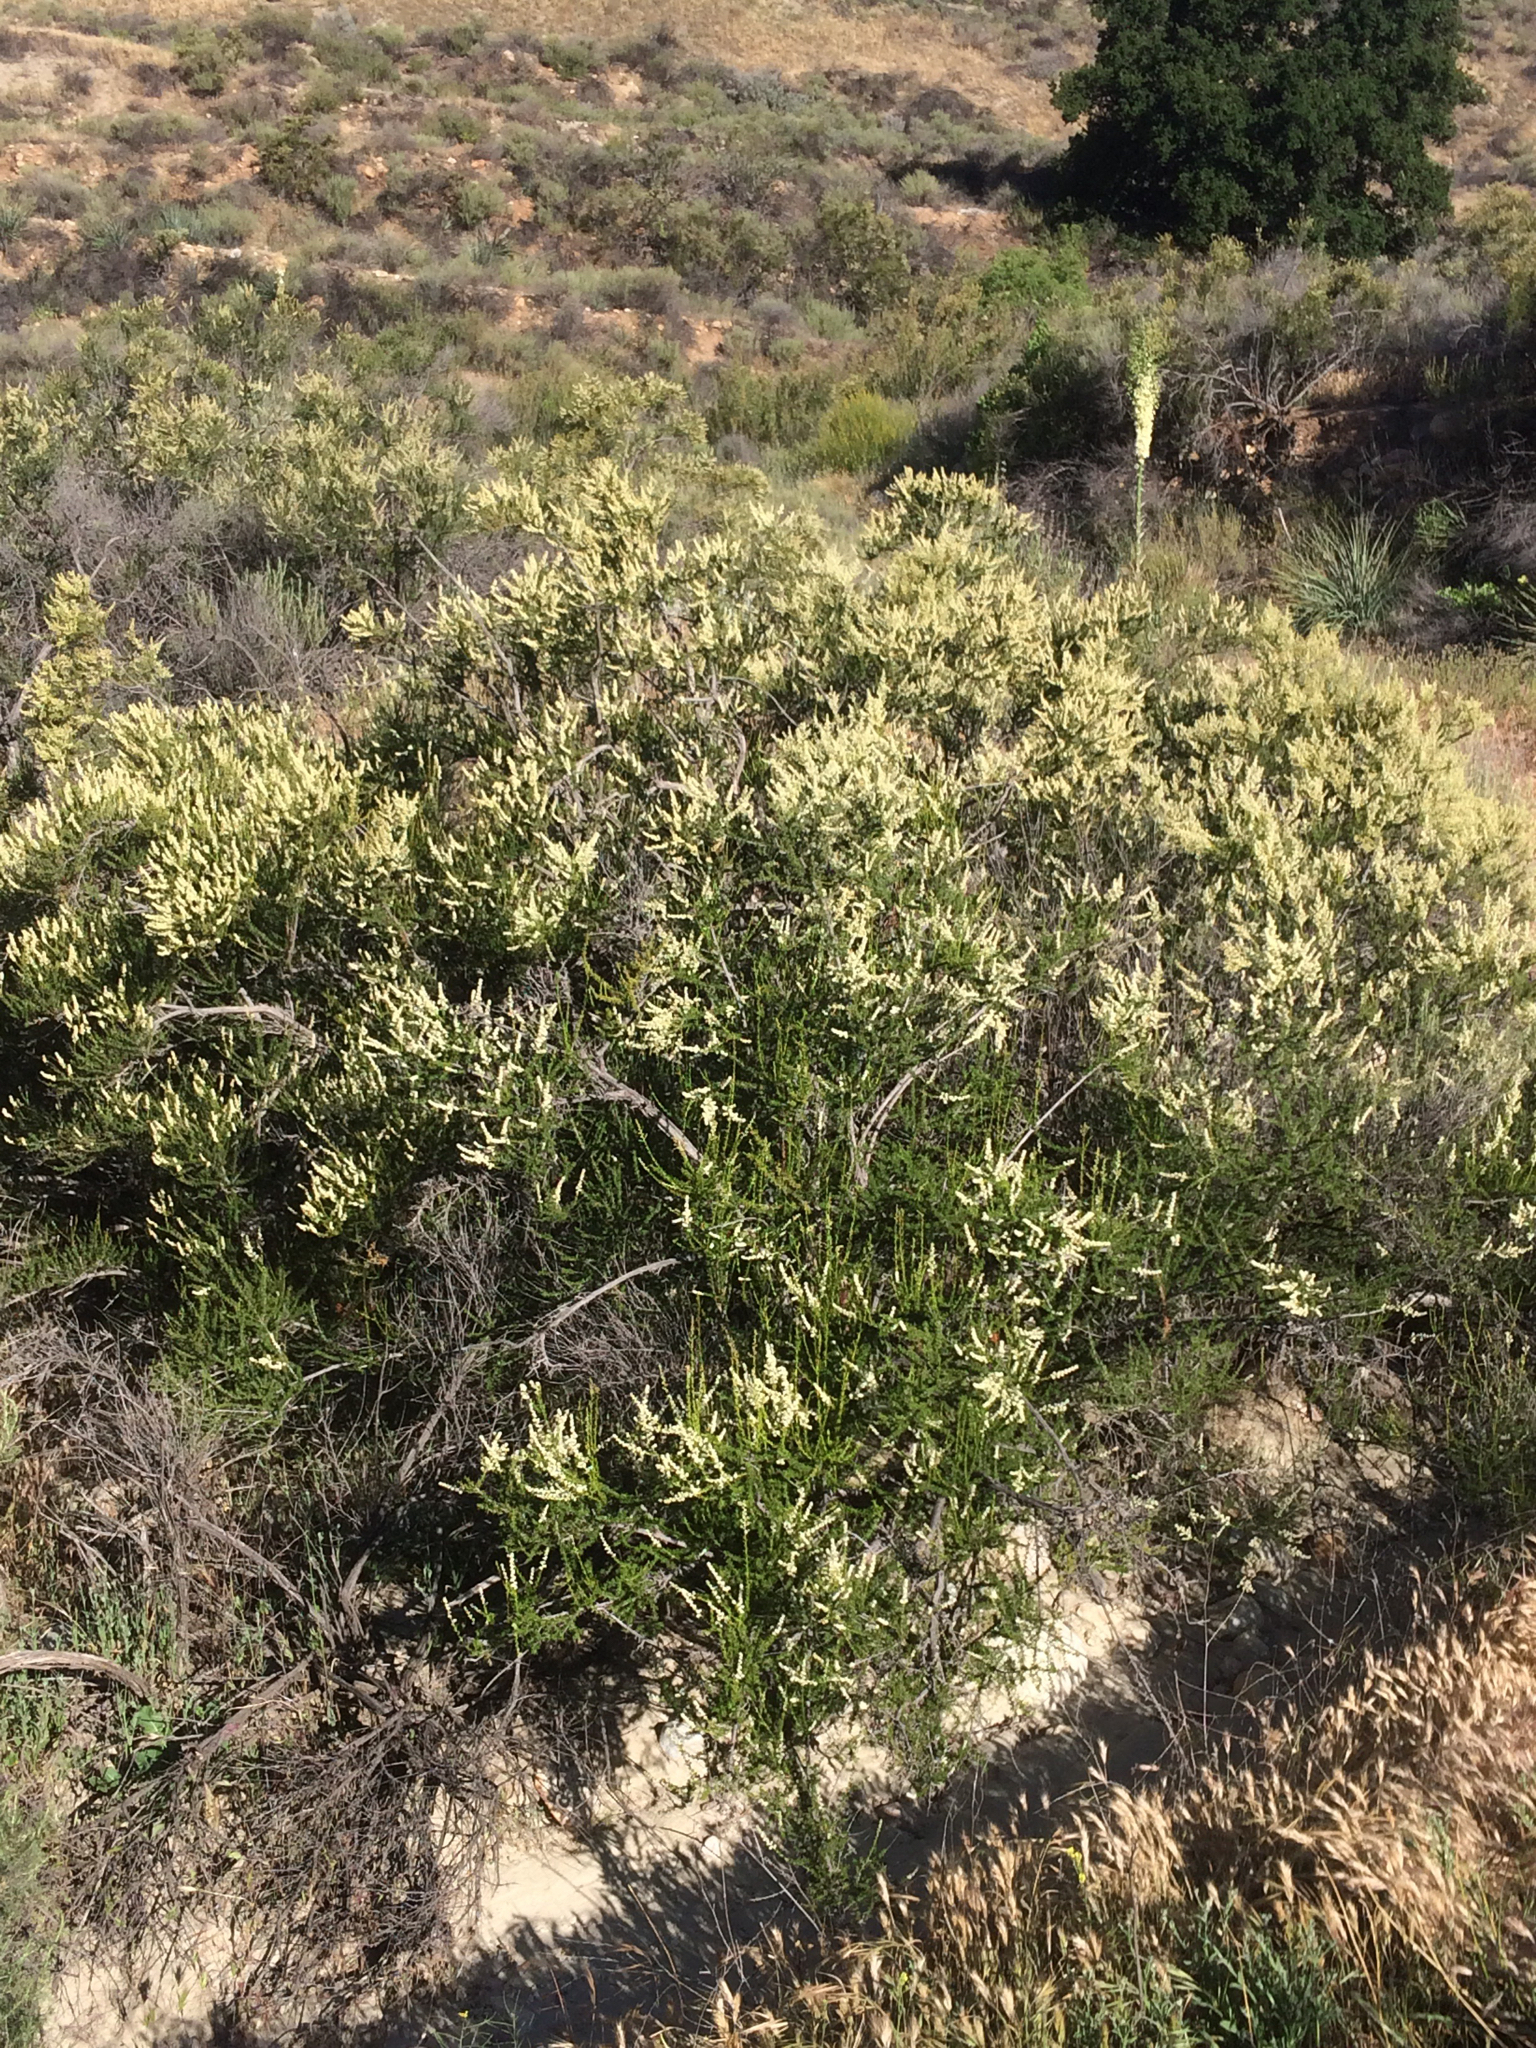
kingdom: Plantae
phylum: Tracheophyta
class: Magnoliopsida
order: Rosales
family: Rosaceae
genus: Adenostoma
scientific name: Adenostoma fasciculatum
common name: Chamise
